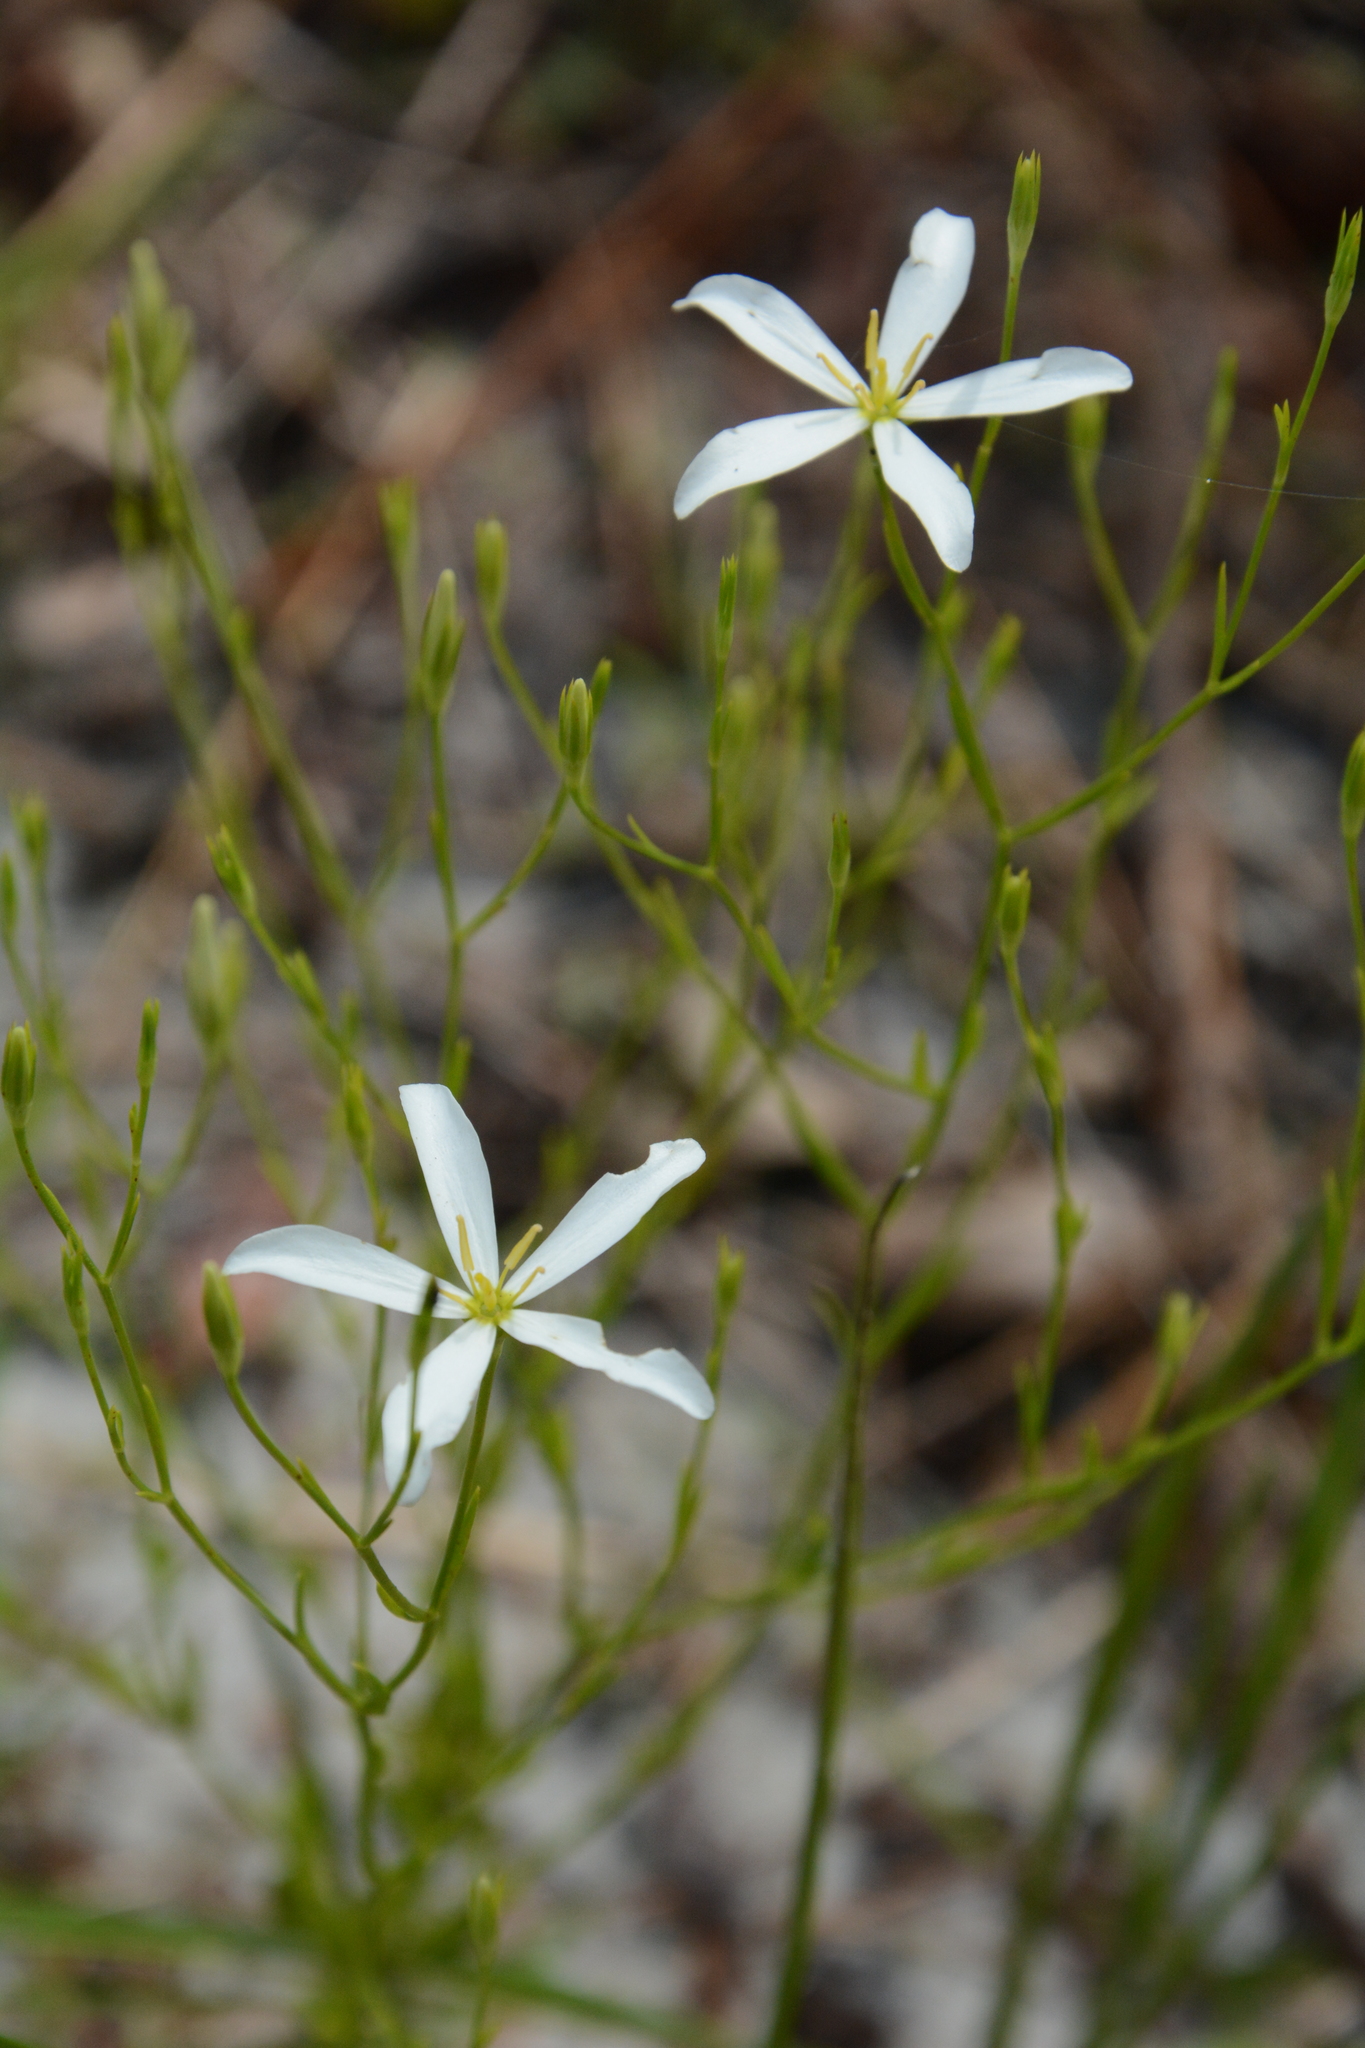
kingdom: Plantae
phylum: Tracheophyta
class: Magnoliopsida
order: Gentianales
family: Gentianaceae
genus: Sabatia
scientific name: Sabatia brevifolia
